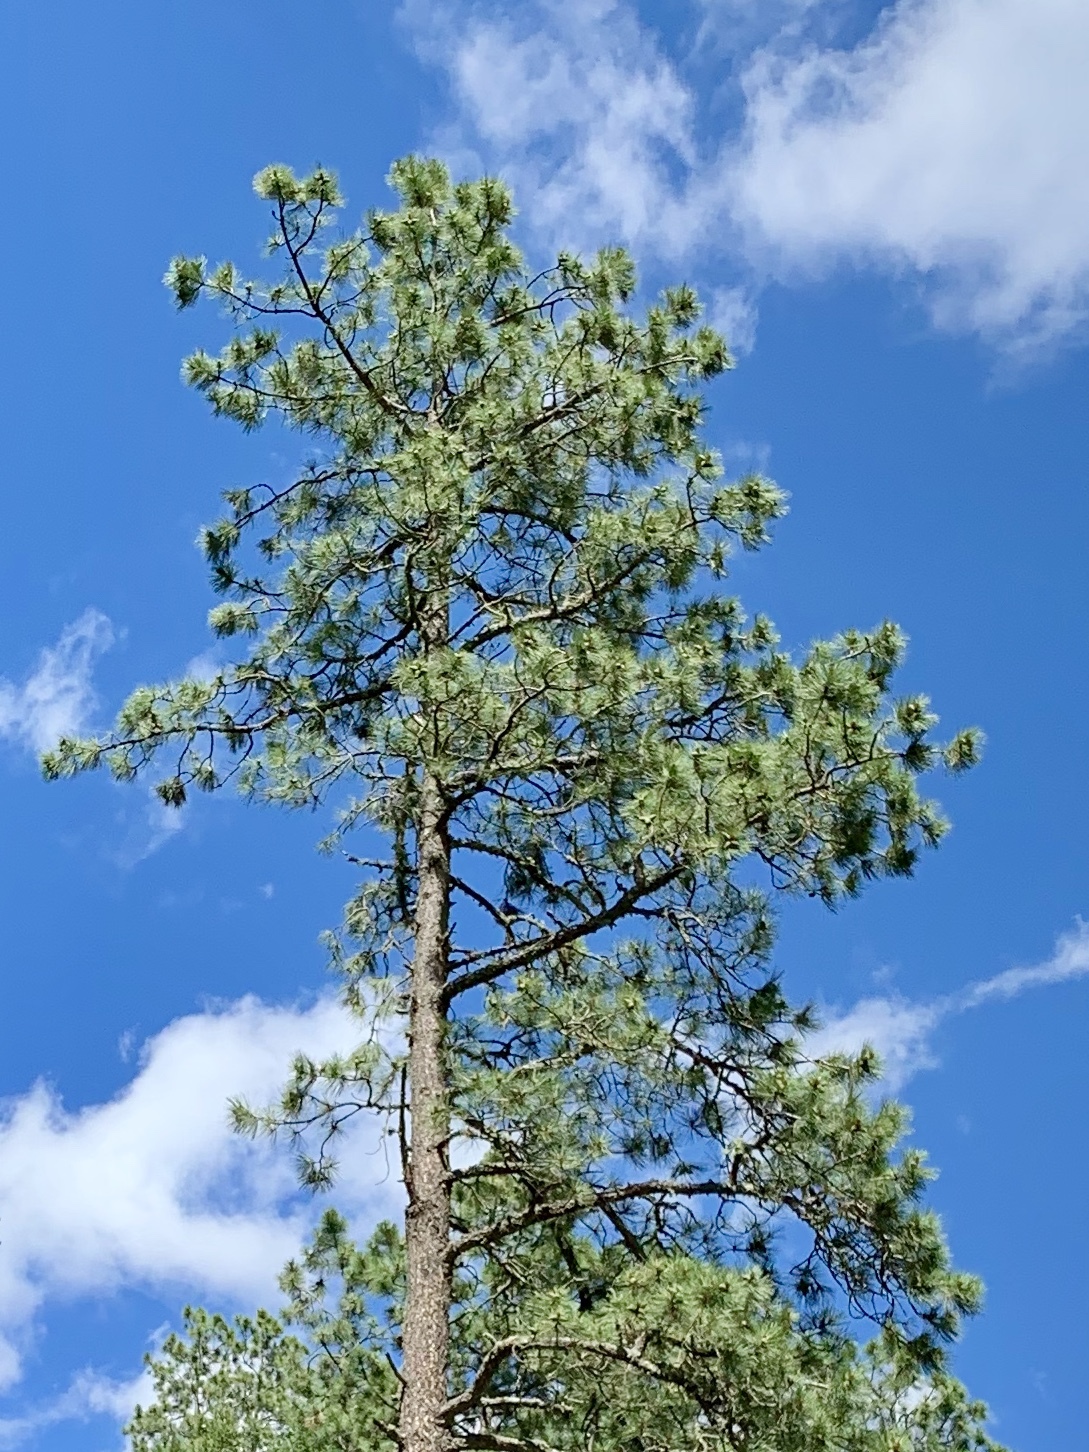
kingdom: Plantae
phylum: Tracheophyta
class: Pinopsida
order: Pinales
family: Pinaceae
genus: Pinus
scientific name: Pinus ponderosa
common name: Western yellow-pine
